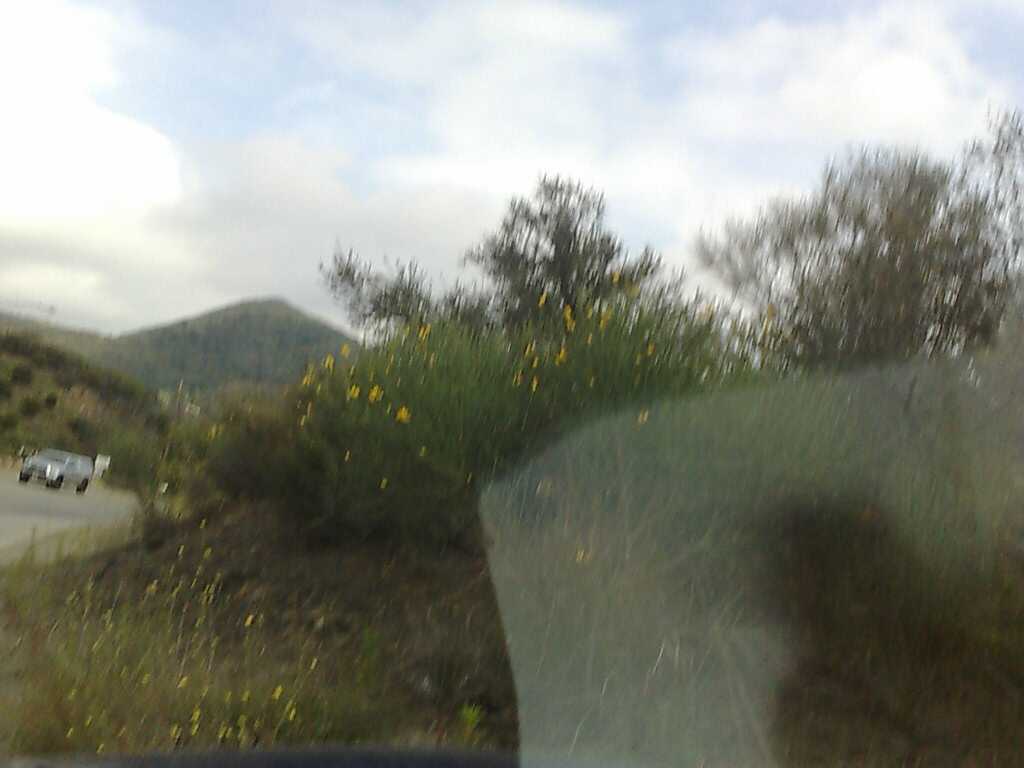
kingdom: Plantae
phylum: Tracheophyta
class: Magnoliopsida
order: Fabales
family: Fabaceae
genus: Spartium
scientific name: Spartium junceum
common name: Spanish broom
